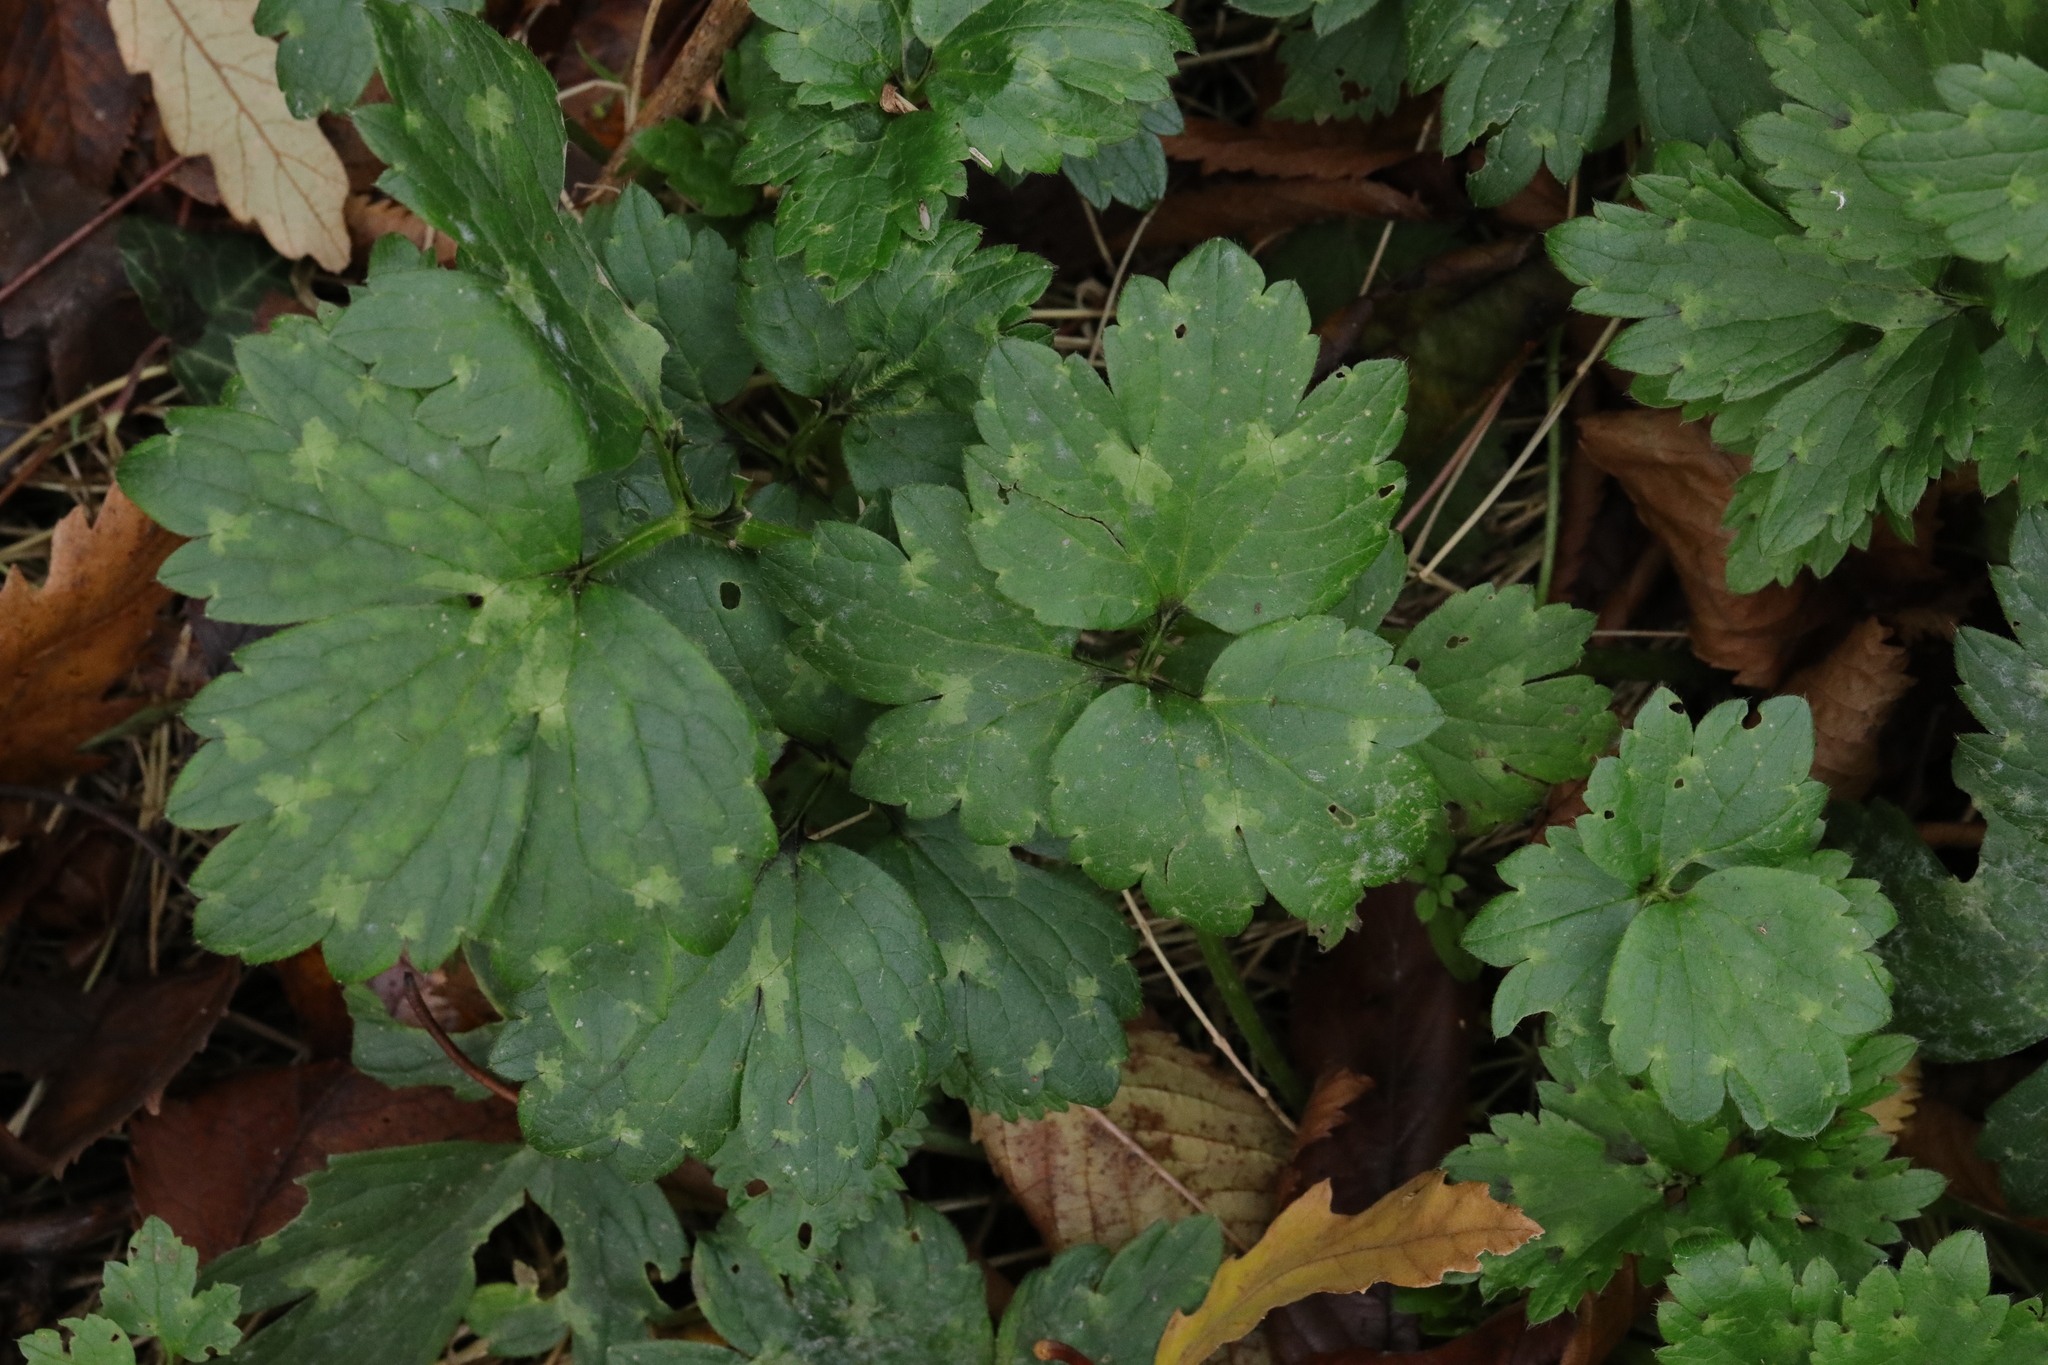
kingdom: Plantae
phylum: Tracheophyta
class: Magnoliopsida
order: Ranunculales
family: Ranunculaceae
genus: Ranunculus
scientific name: Ranunculus repens
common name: Creeping buttercup
